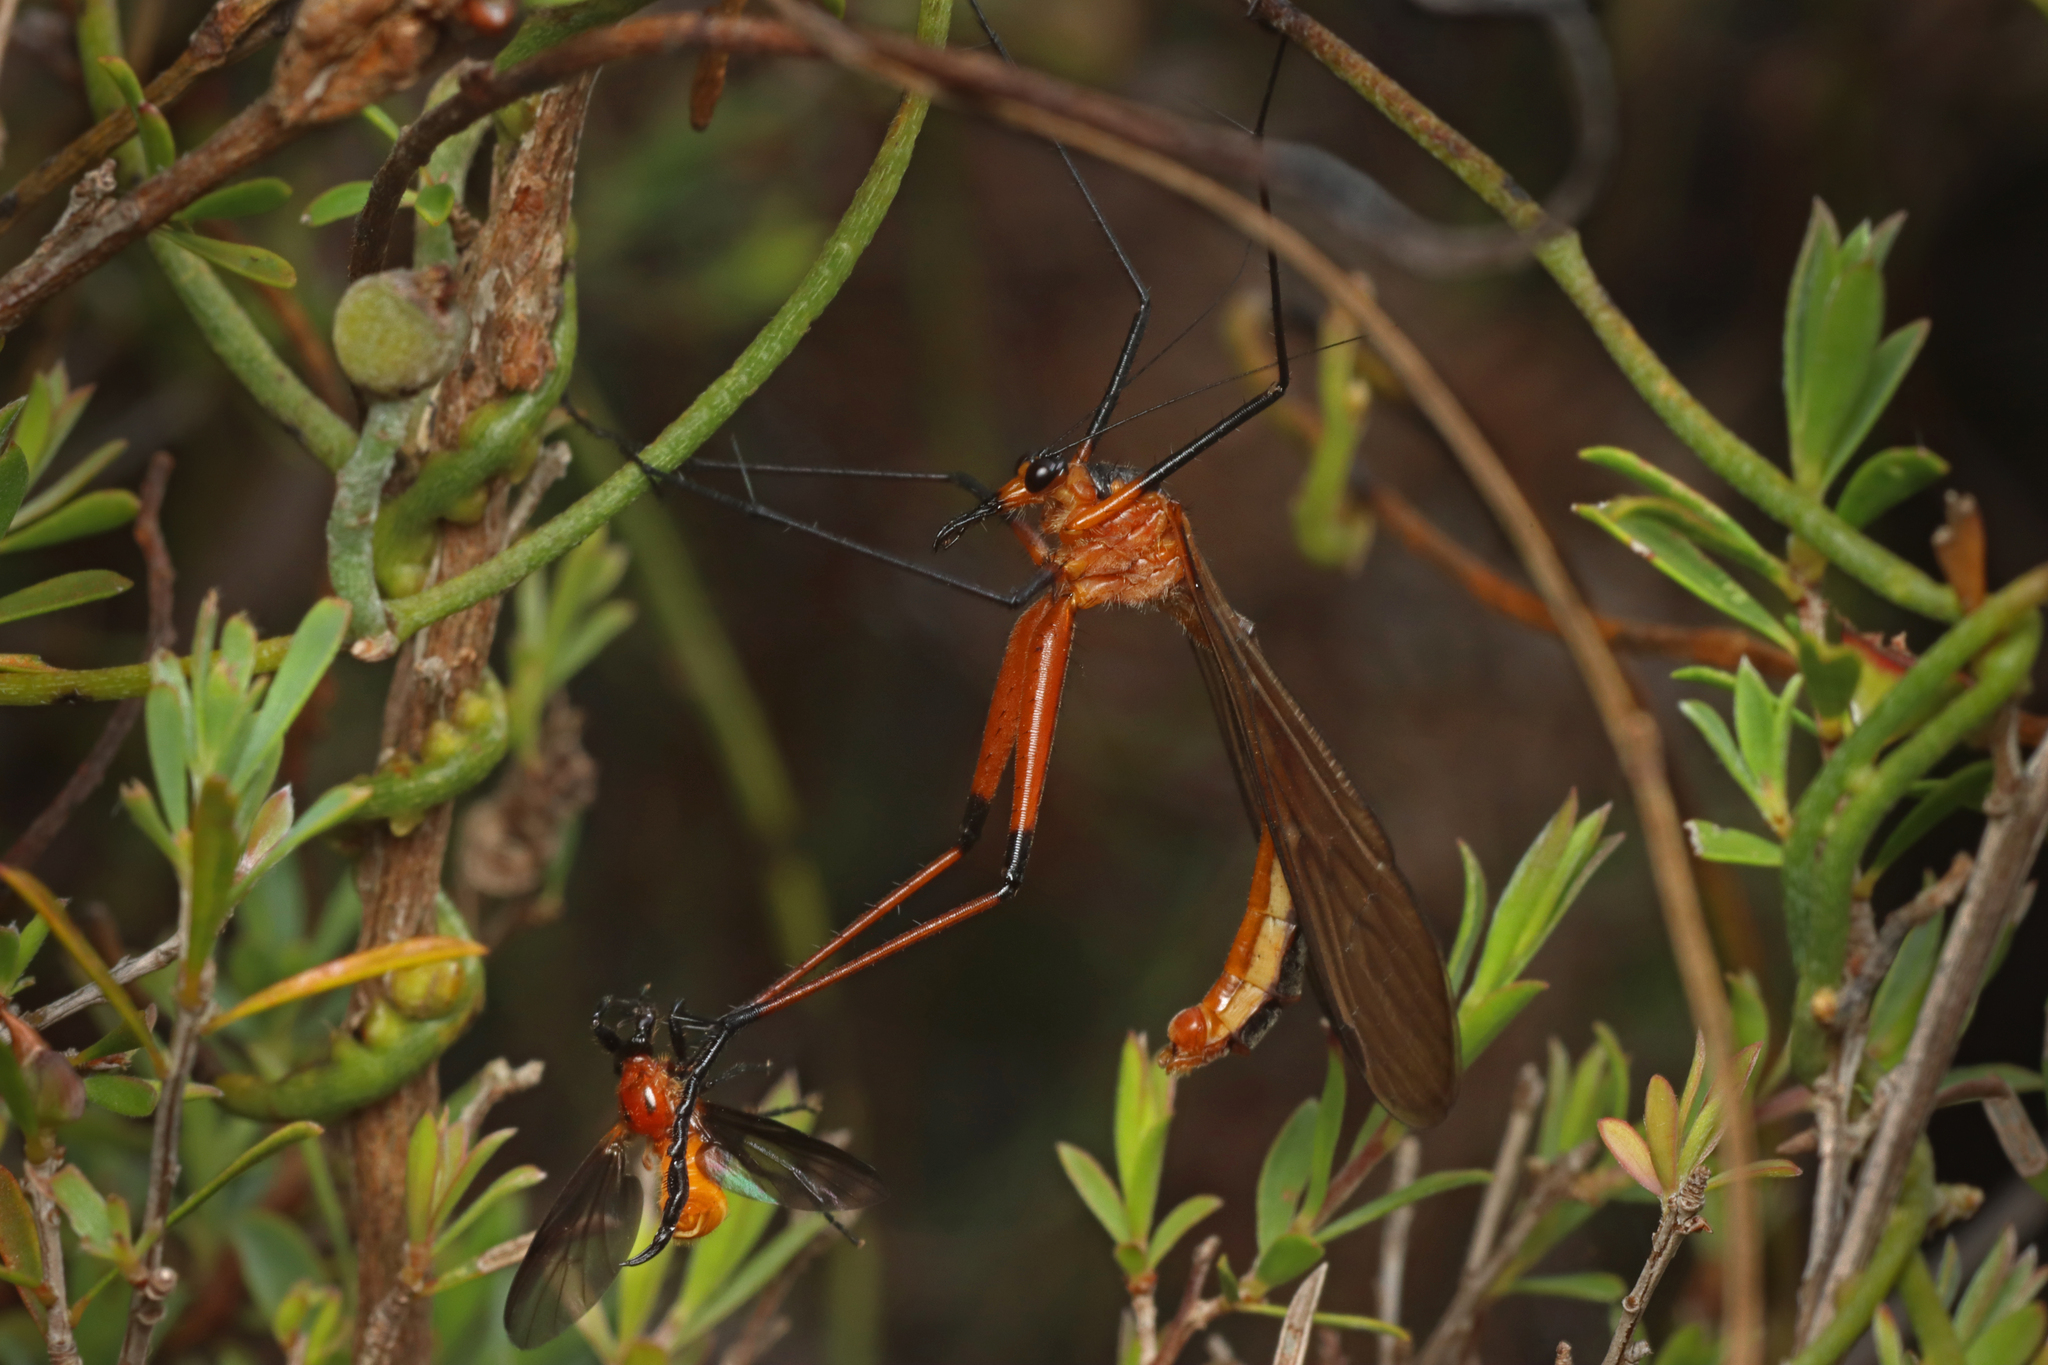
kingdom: Animalia
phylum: Arthropoda
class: Insecta
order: Mecoptera
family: Bittacidae
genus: Harpobittacus
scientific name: Harpobittacus australis
